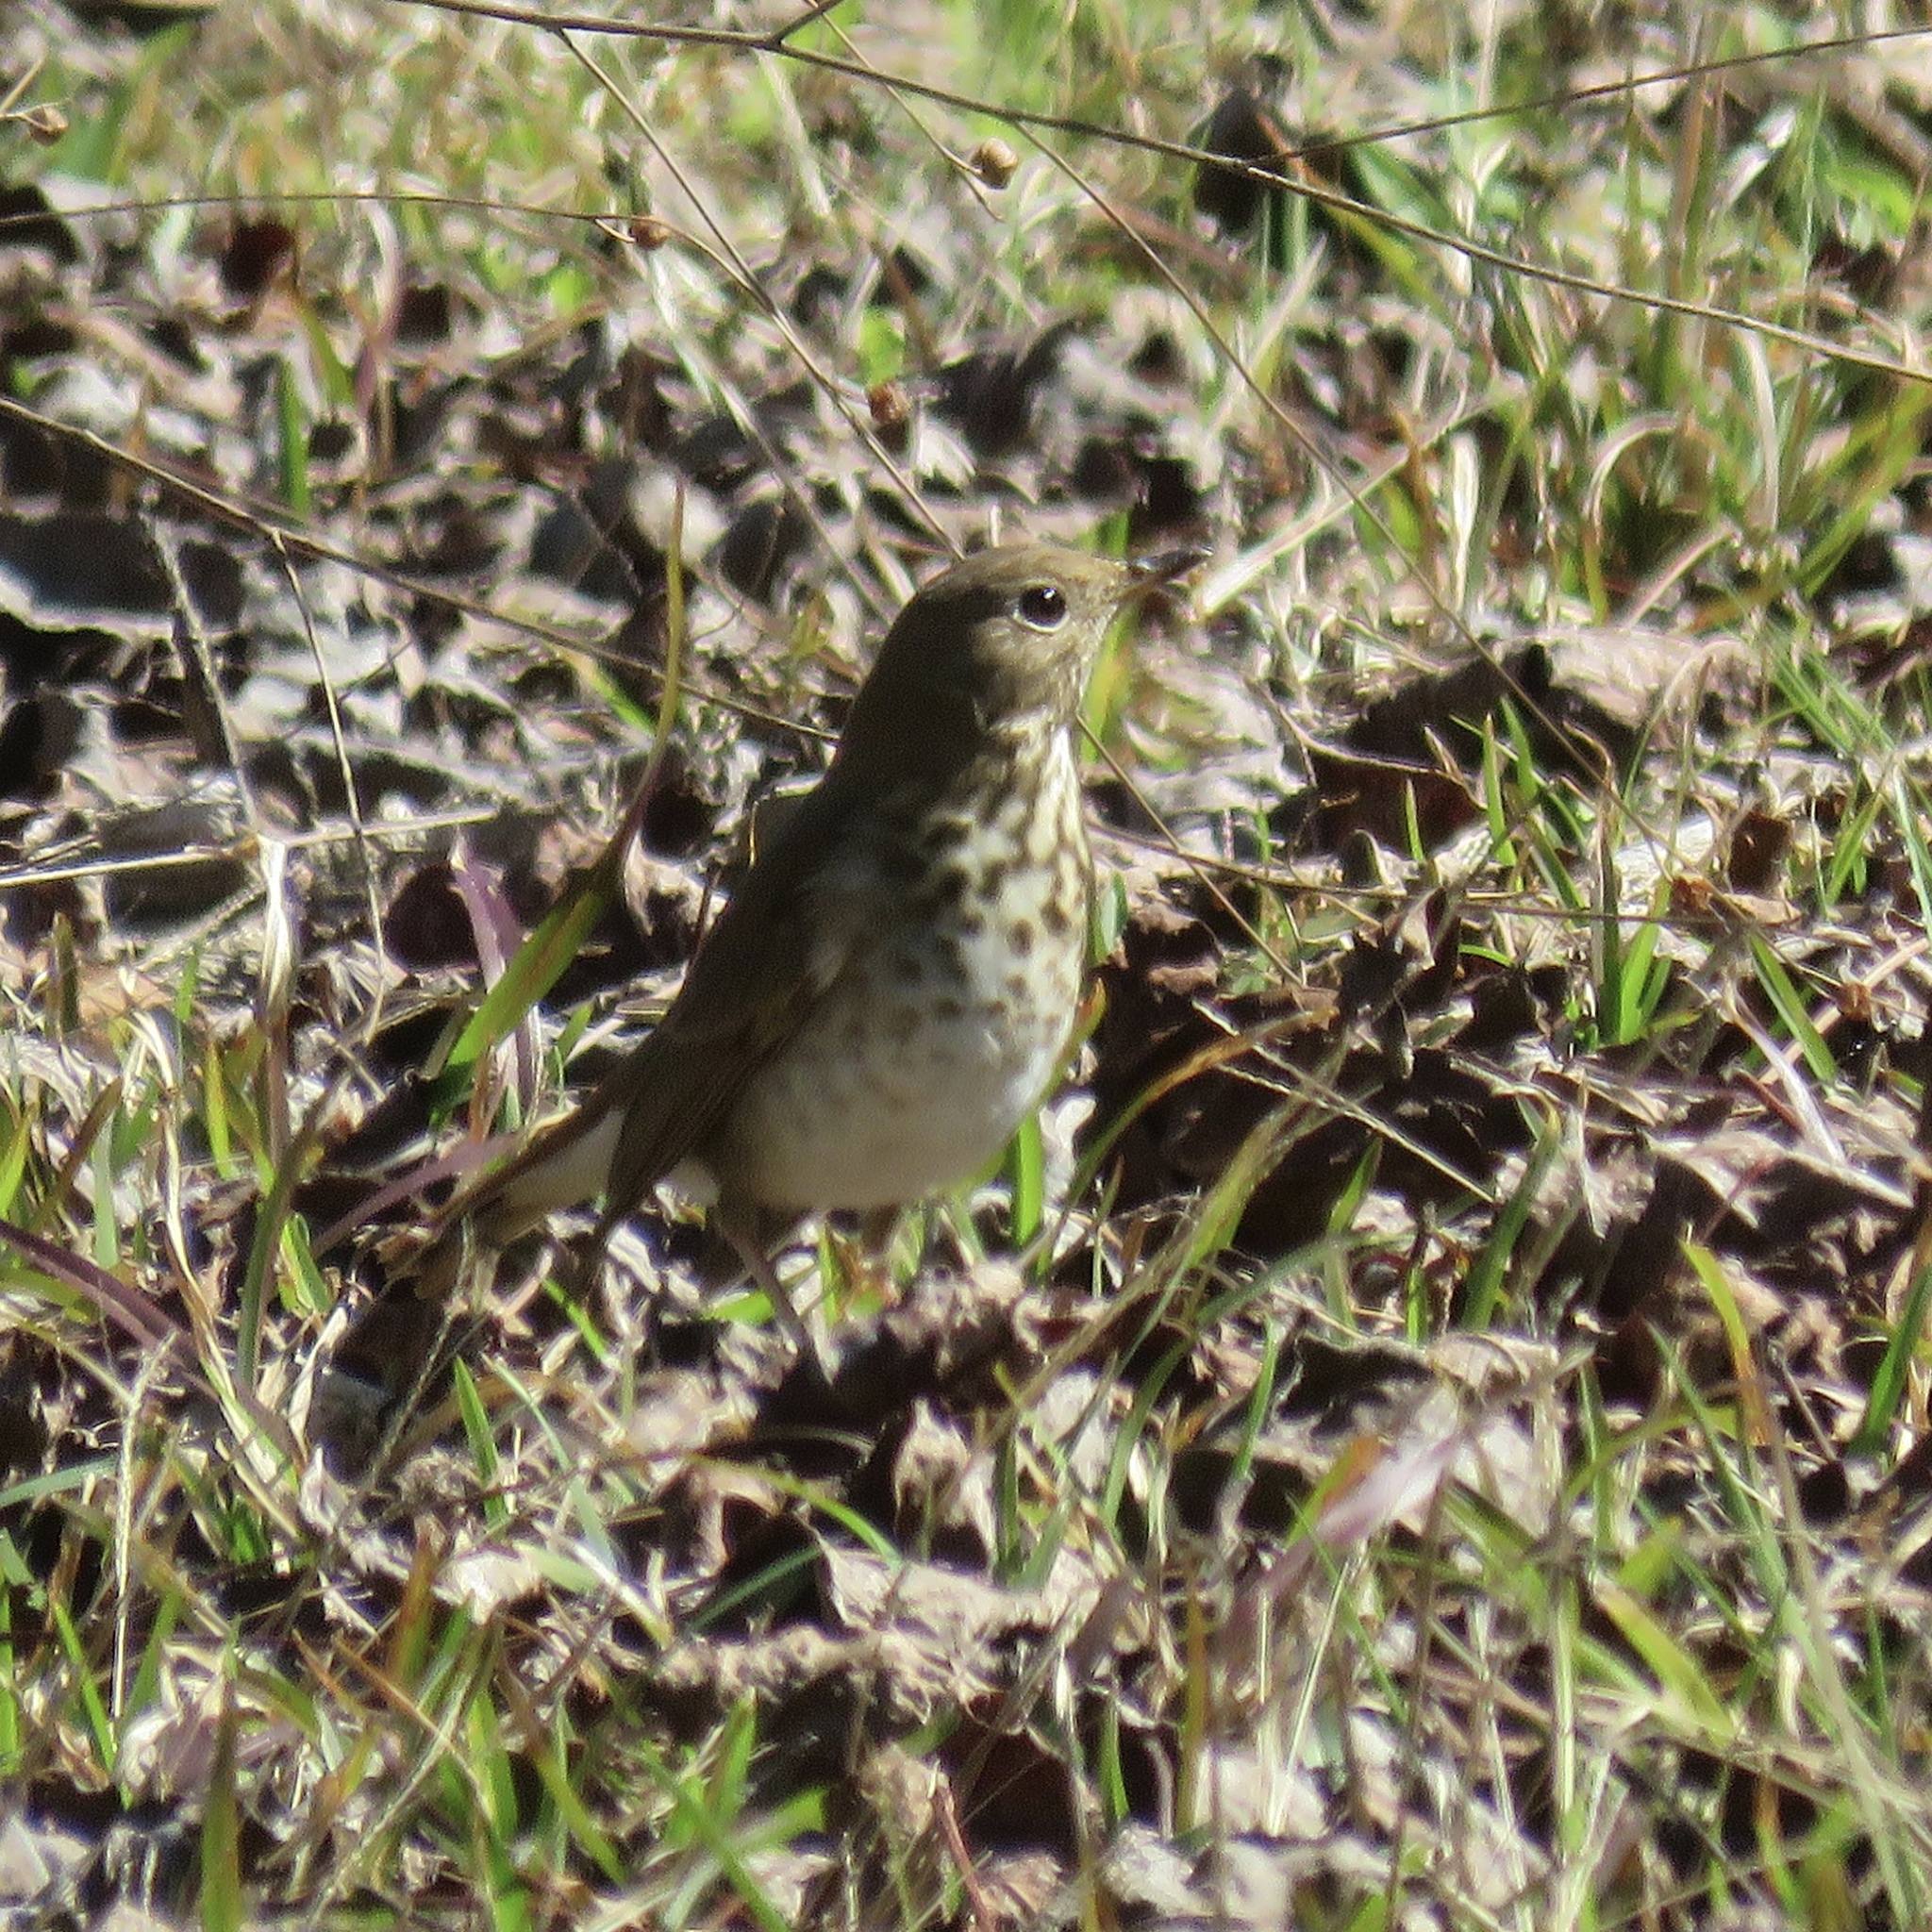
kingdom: Animalia
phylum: Chordata
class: Aves
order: Passeriformes
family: Turdidae
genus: Catharus
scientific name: Catharus guttatus
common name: Hermit thrush
